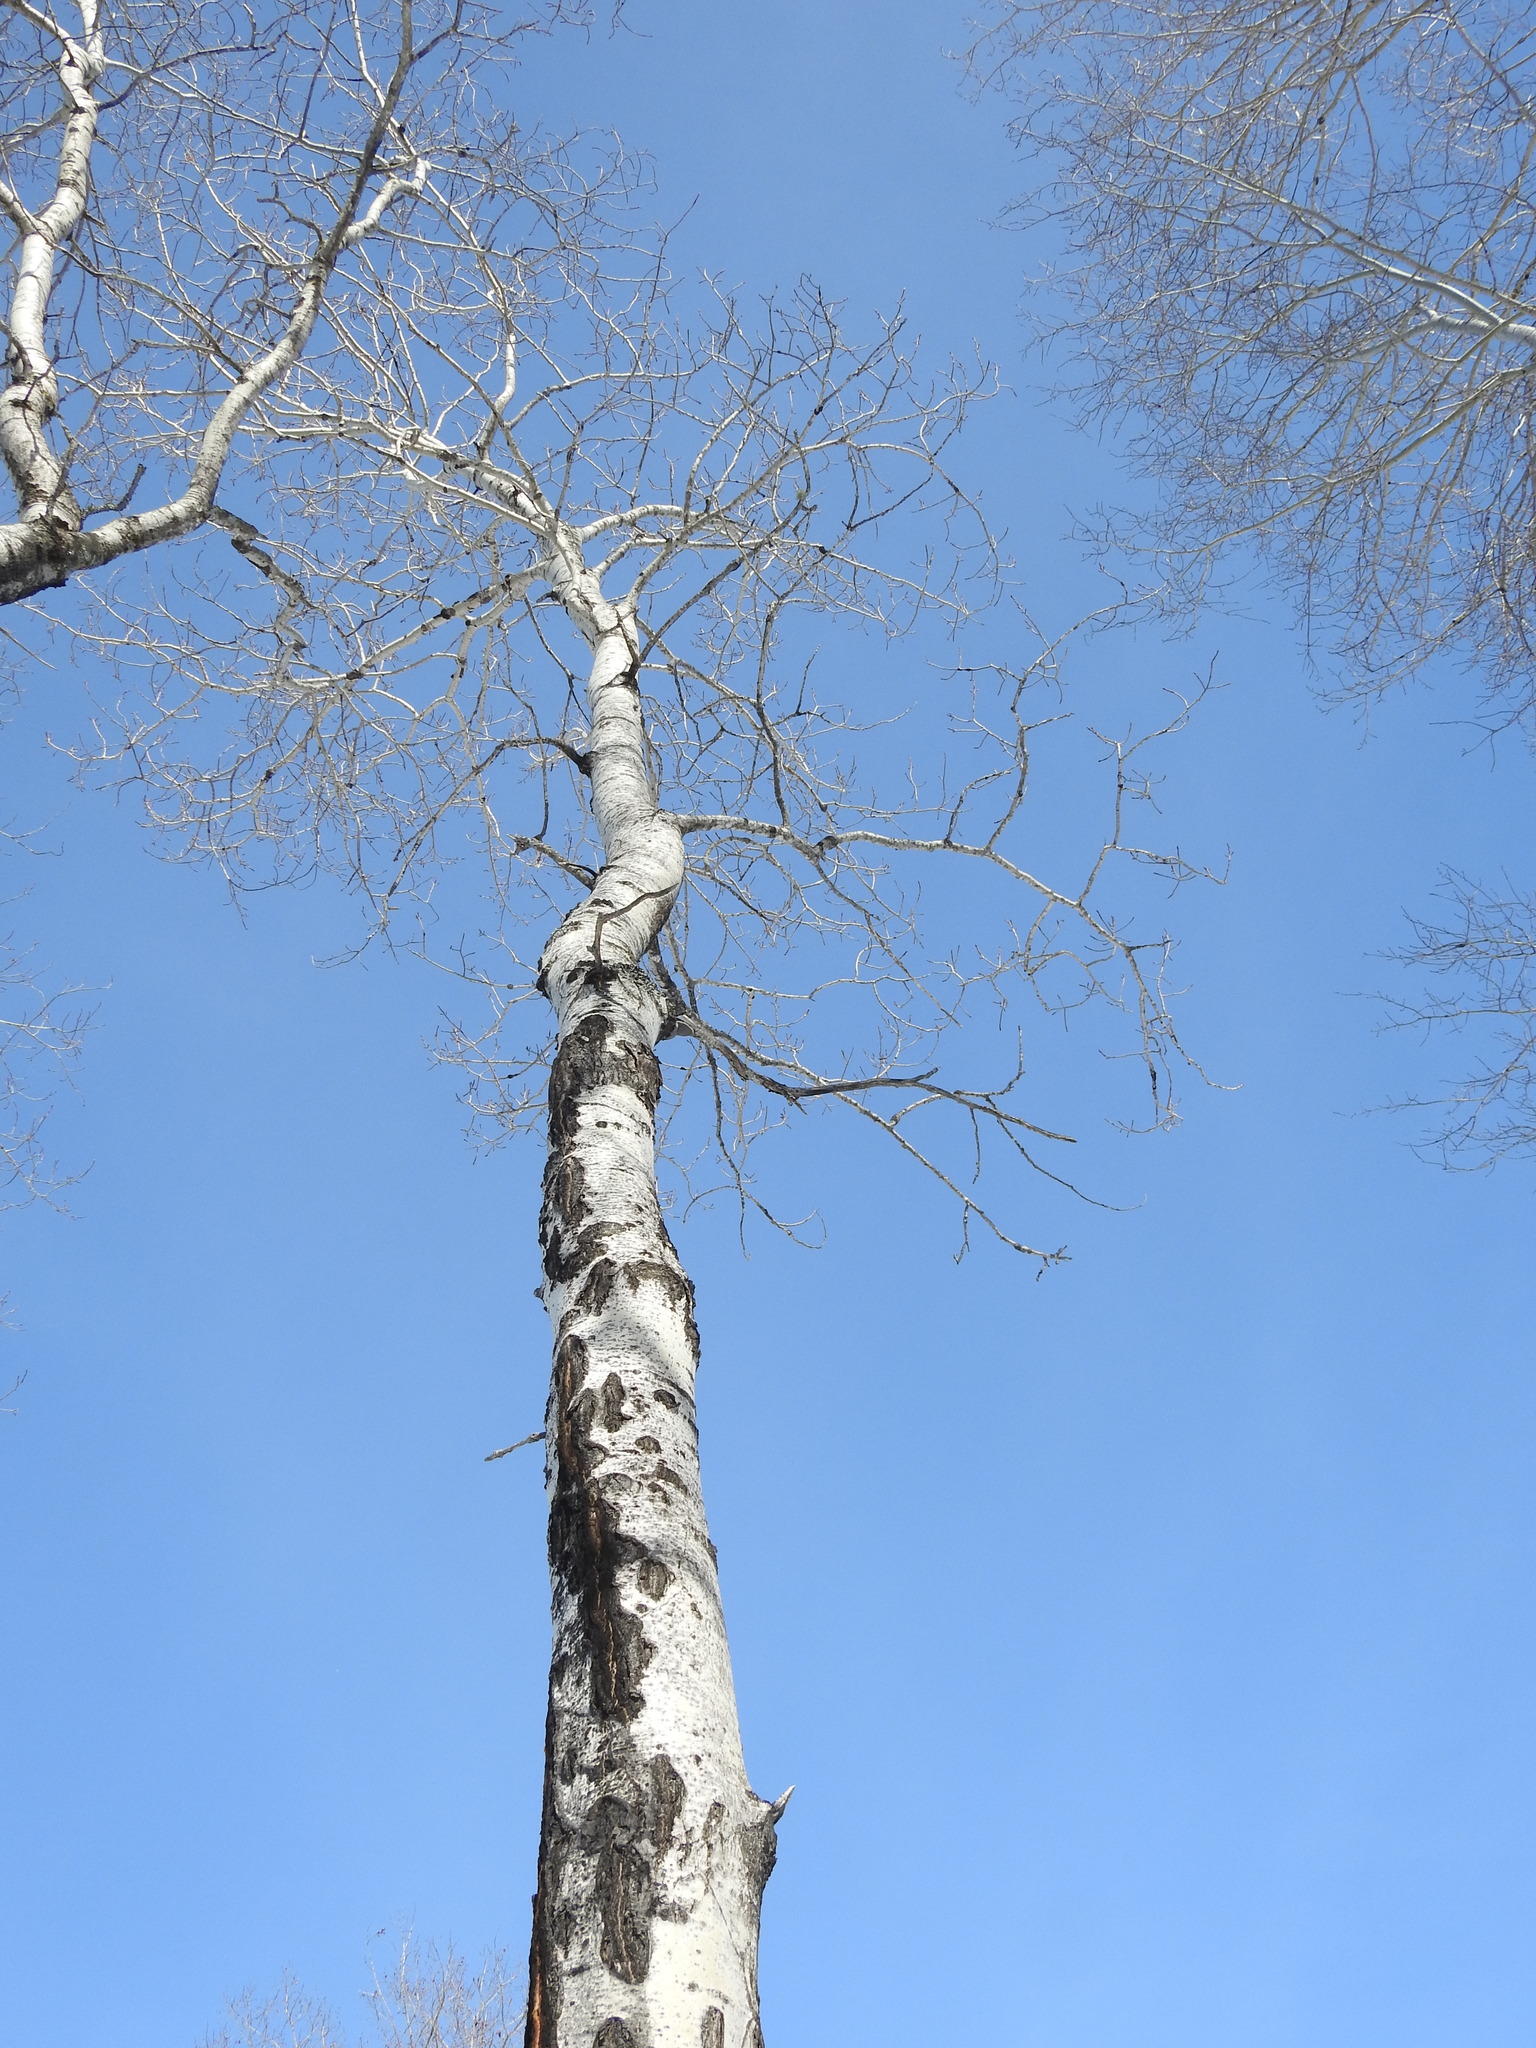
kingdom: Plantae
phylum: Tracheophyta
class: Magnoliopsida
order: Malpighiales
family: Salicaceae
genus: Populus
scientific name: Populus tremuloides
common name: Quaking aspen
